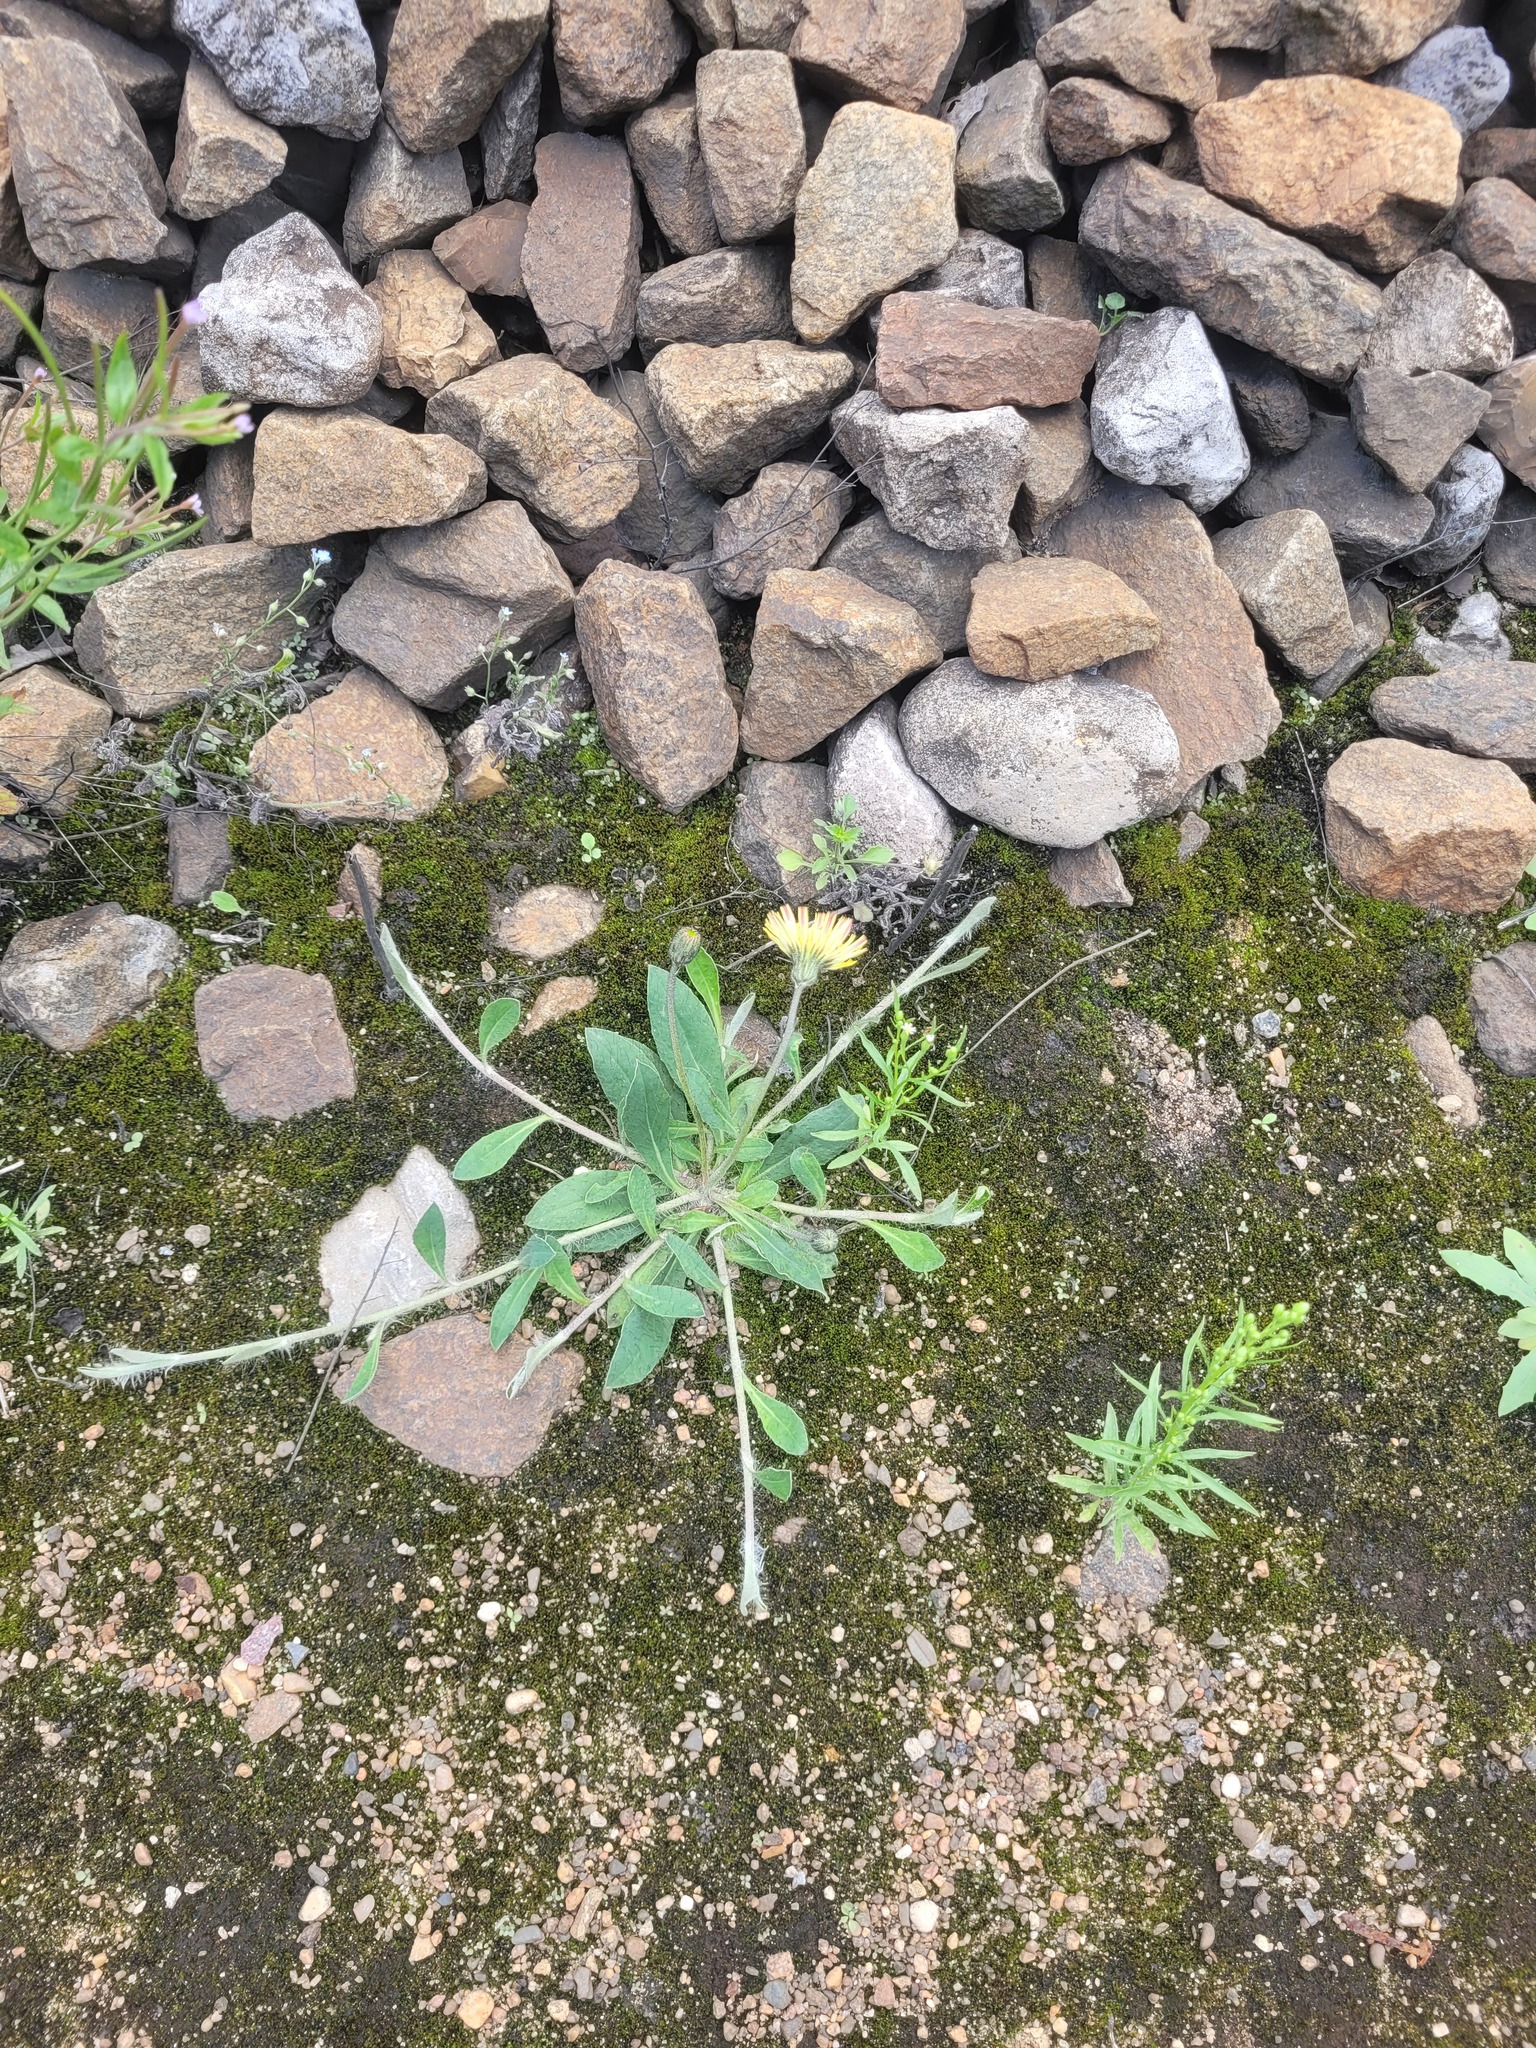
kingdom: Plantae
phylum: Tracheophyta
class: Magnoliopsida
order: Asterales
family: Asteraceae
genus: Pilosella
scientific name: Pilosella officinarum
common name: Mouse-ear hawkweed
